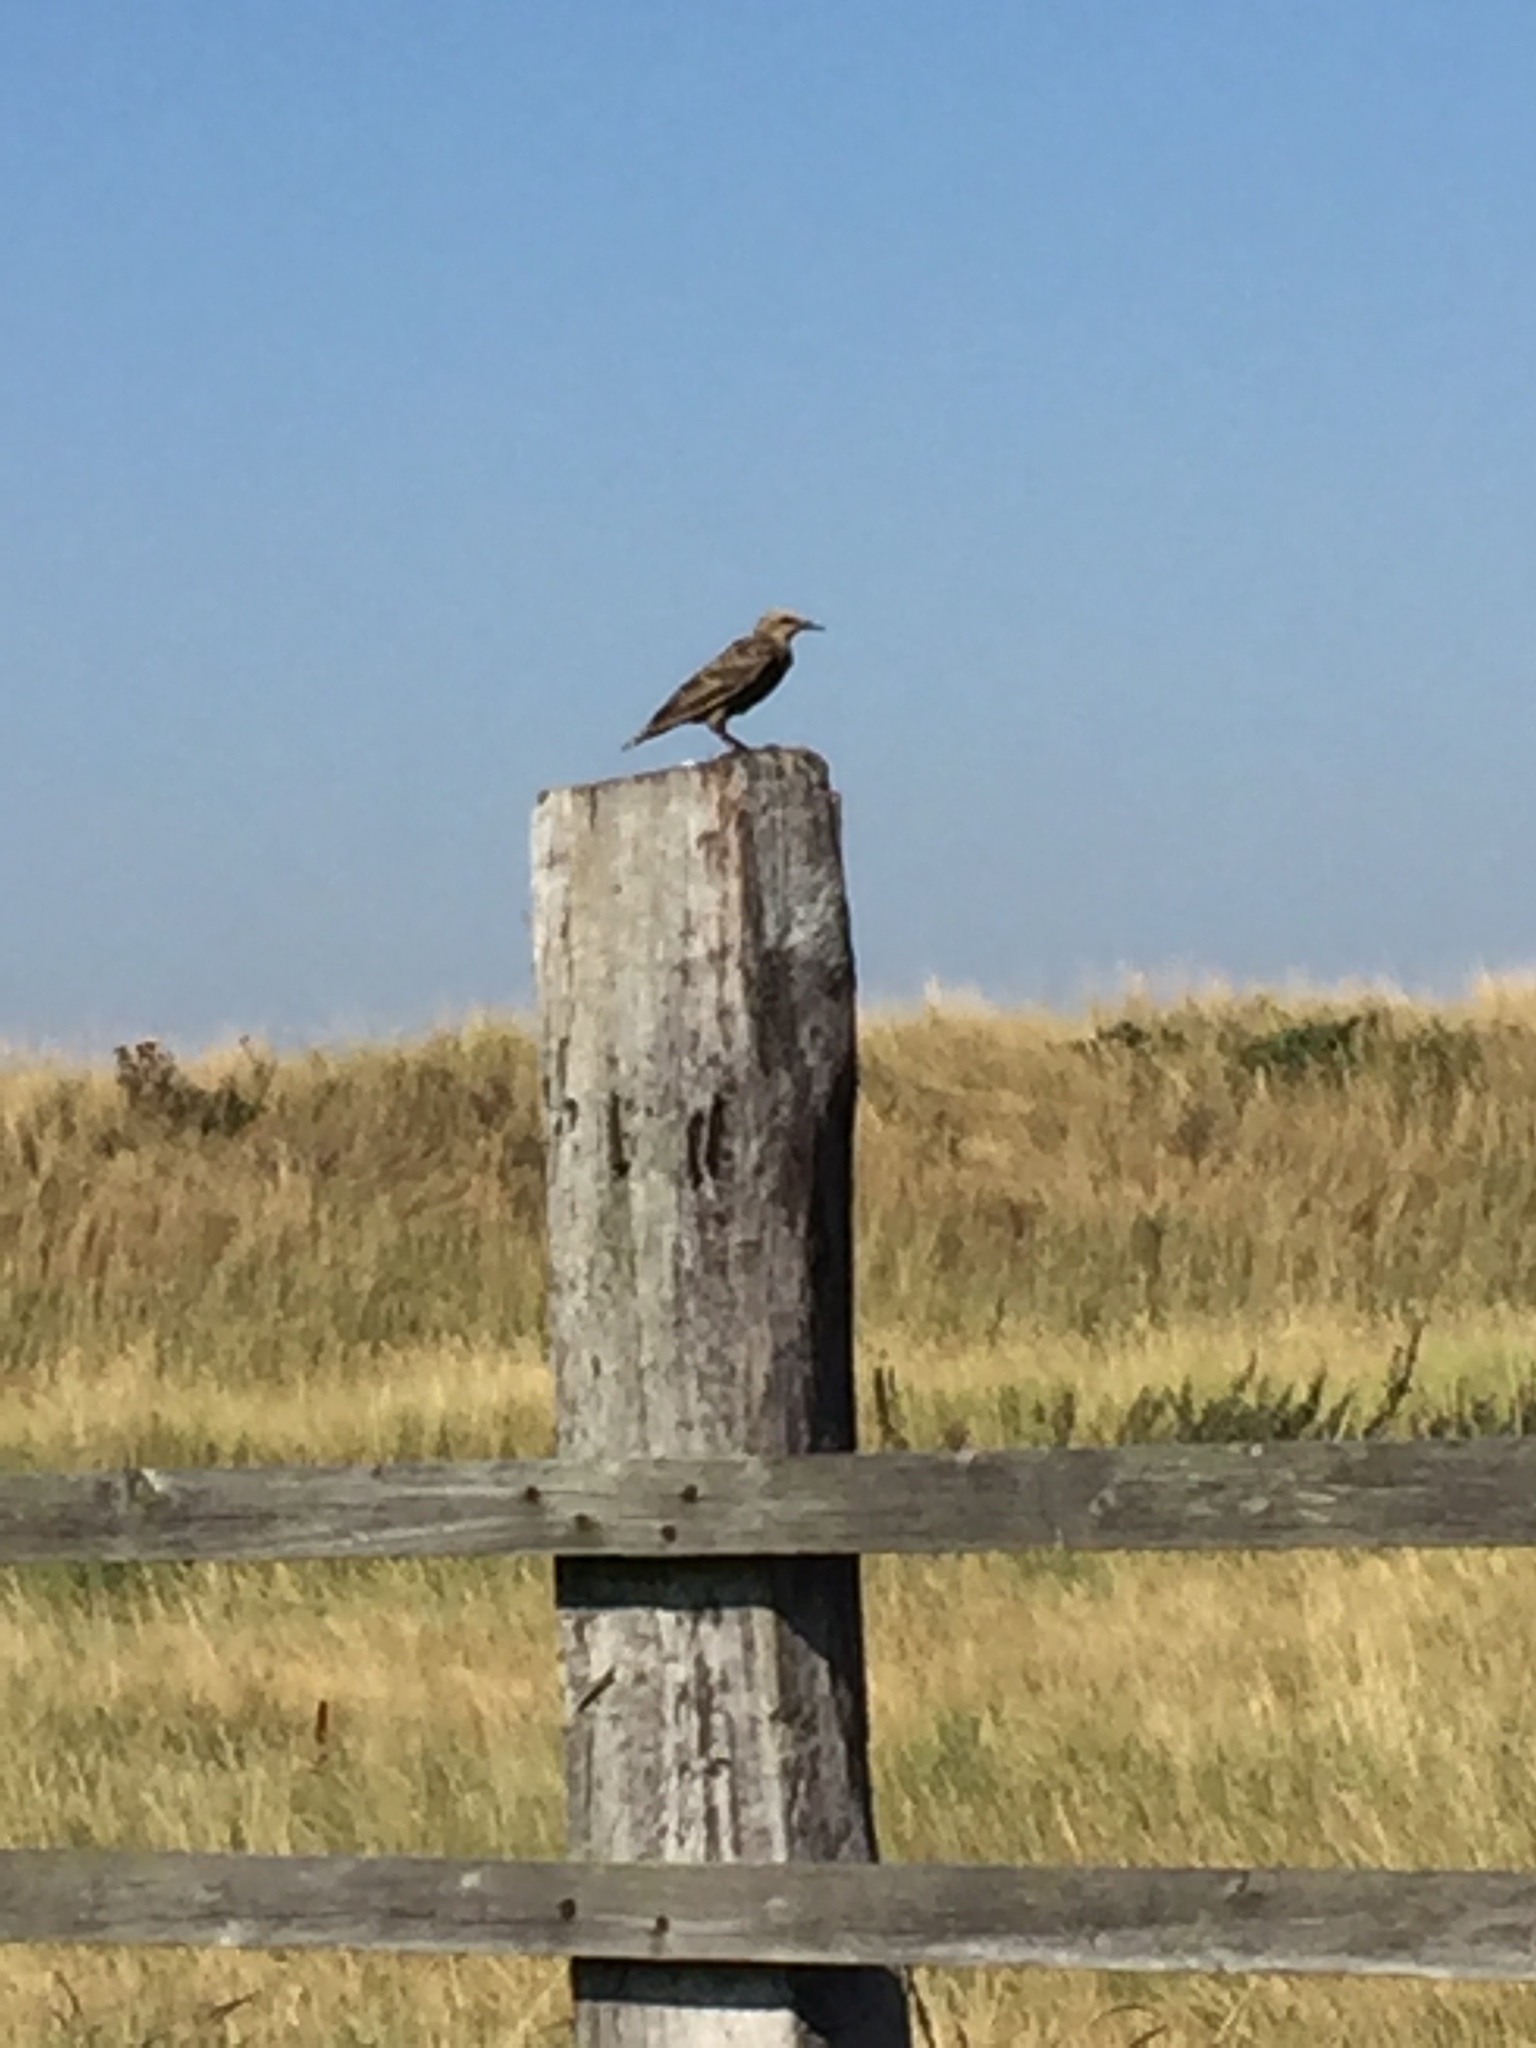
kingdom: Animalia
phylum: Chordata
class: Aves
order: Passeriformes
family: Sturnidae
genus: Sturnus
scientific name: Sturnus vulgaris
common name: Common starling
